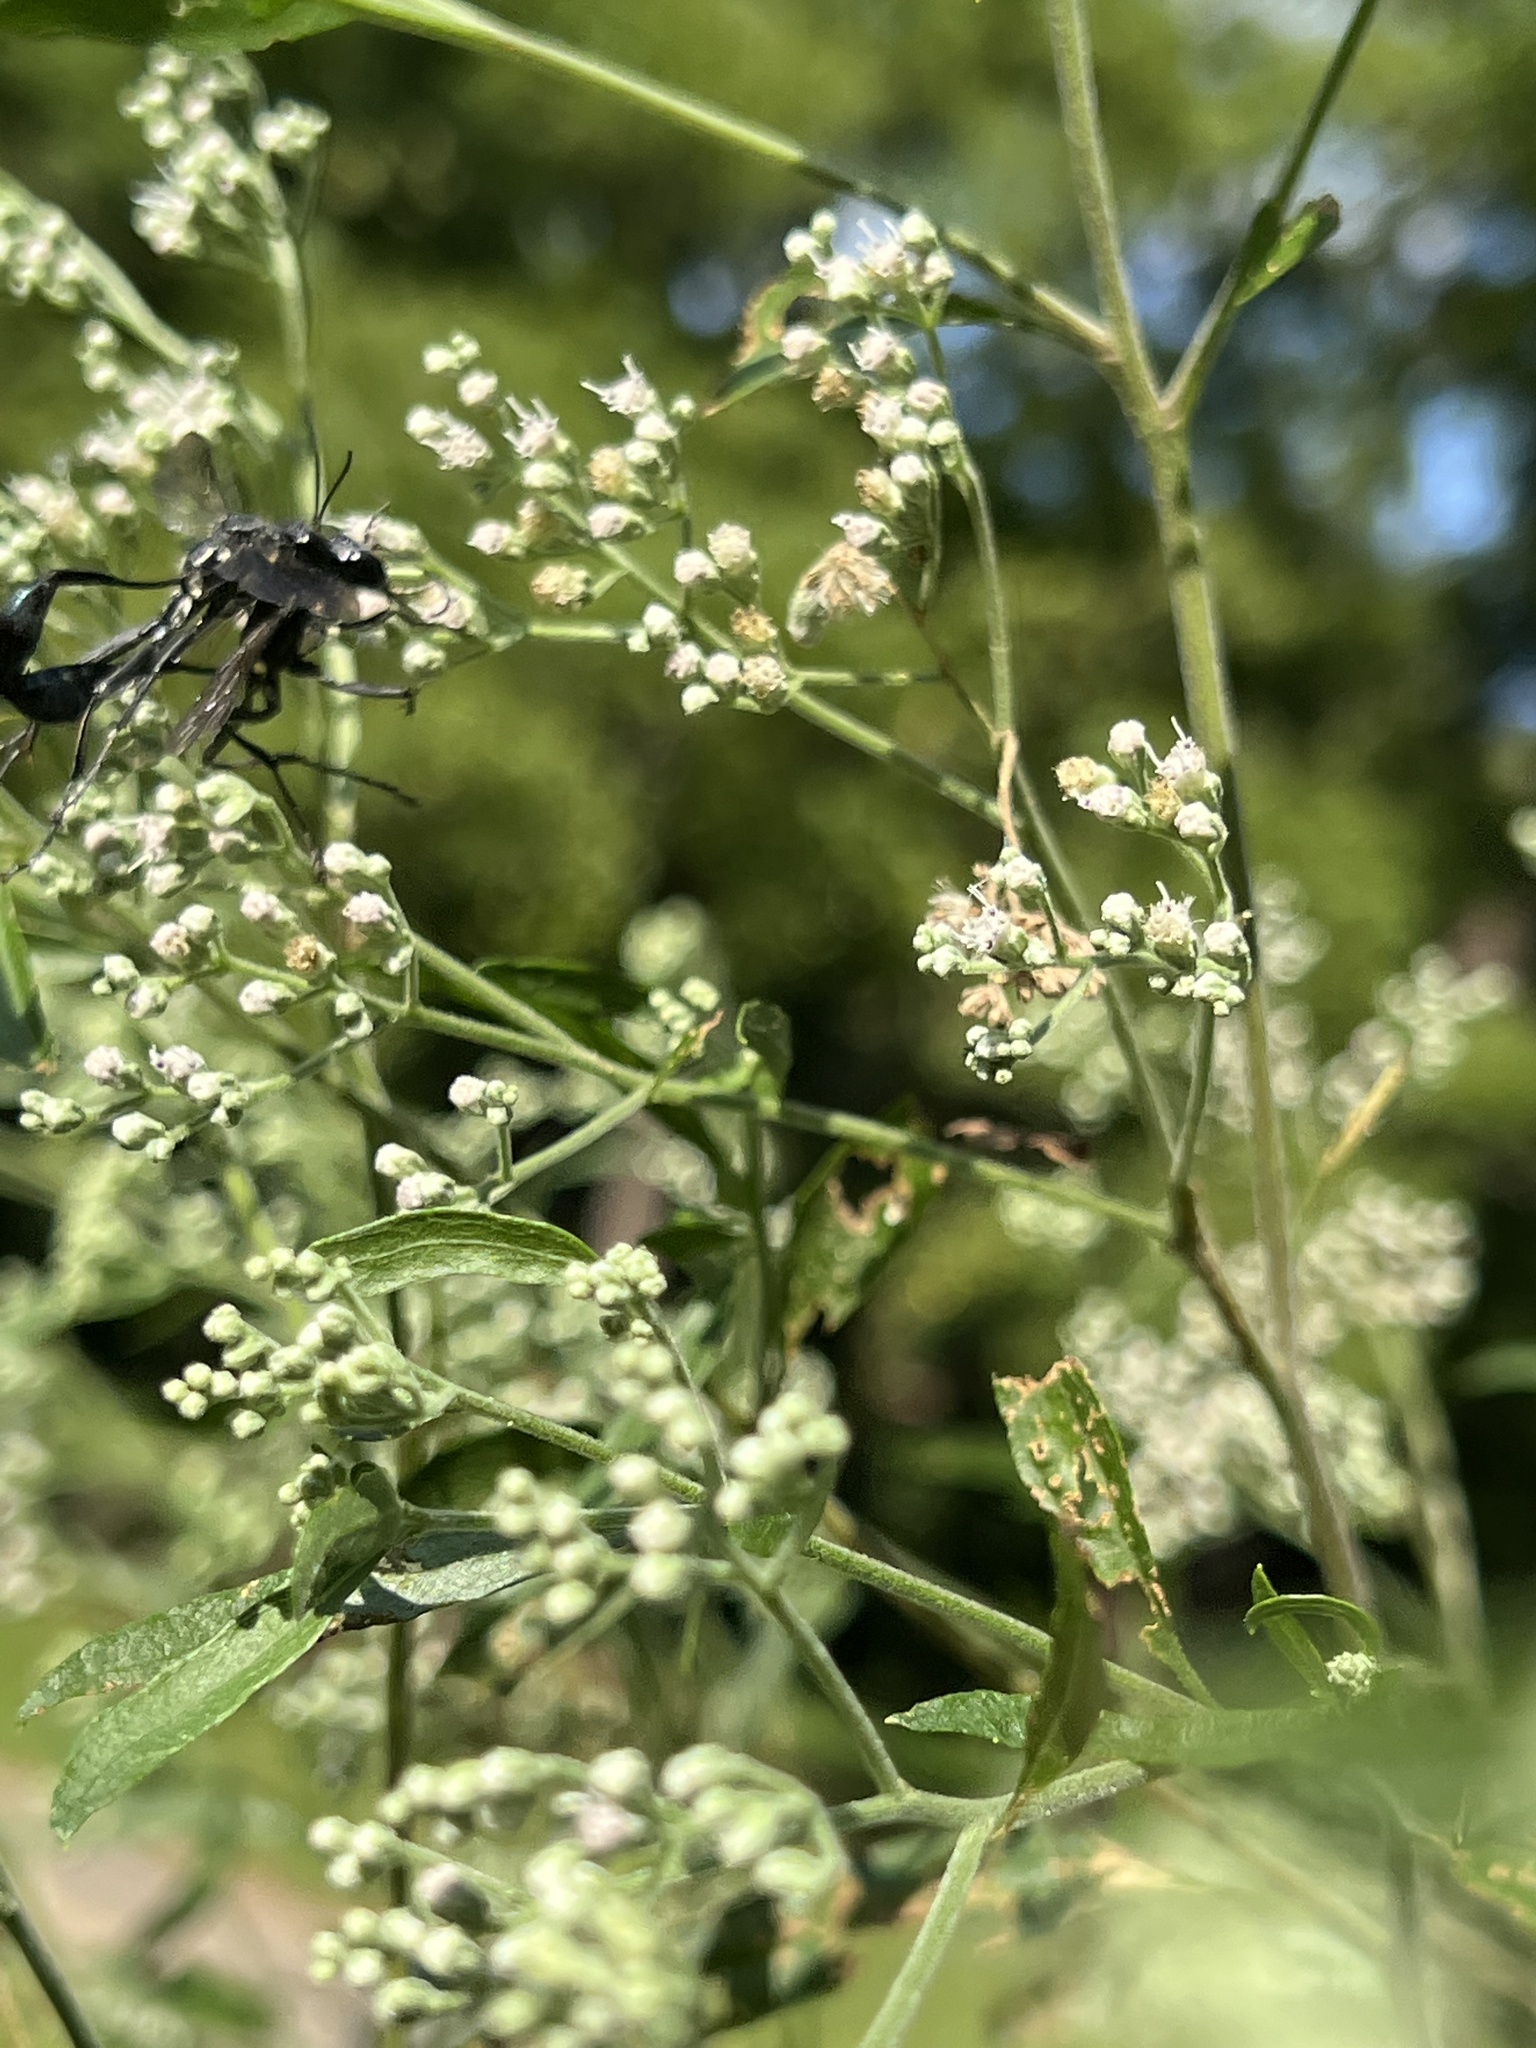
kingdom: Animalia
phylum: Arthropoda
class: Insecta
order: Hymenoptera
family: Sphecidae
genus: Eremnophila
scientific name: Eremnophila aureonotata
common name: Gold-marked thread-waisted wasp
